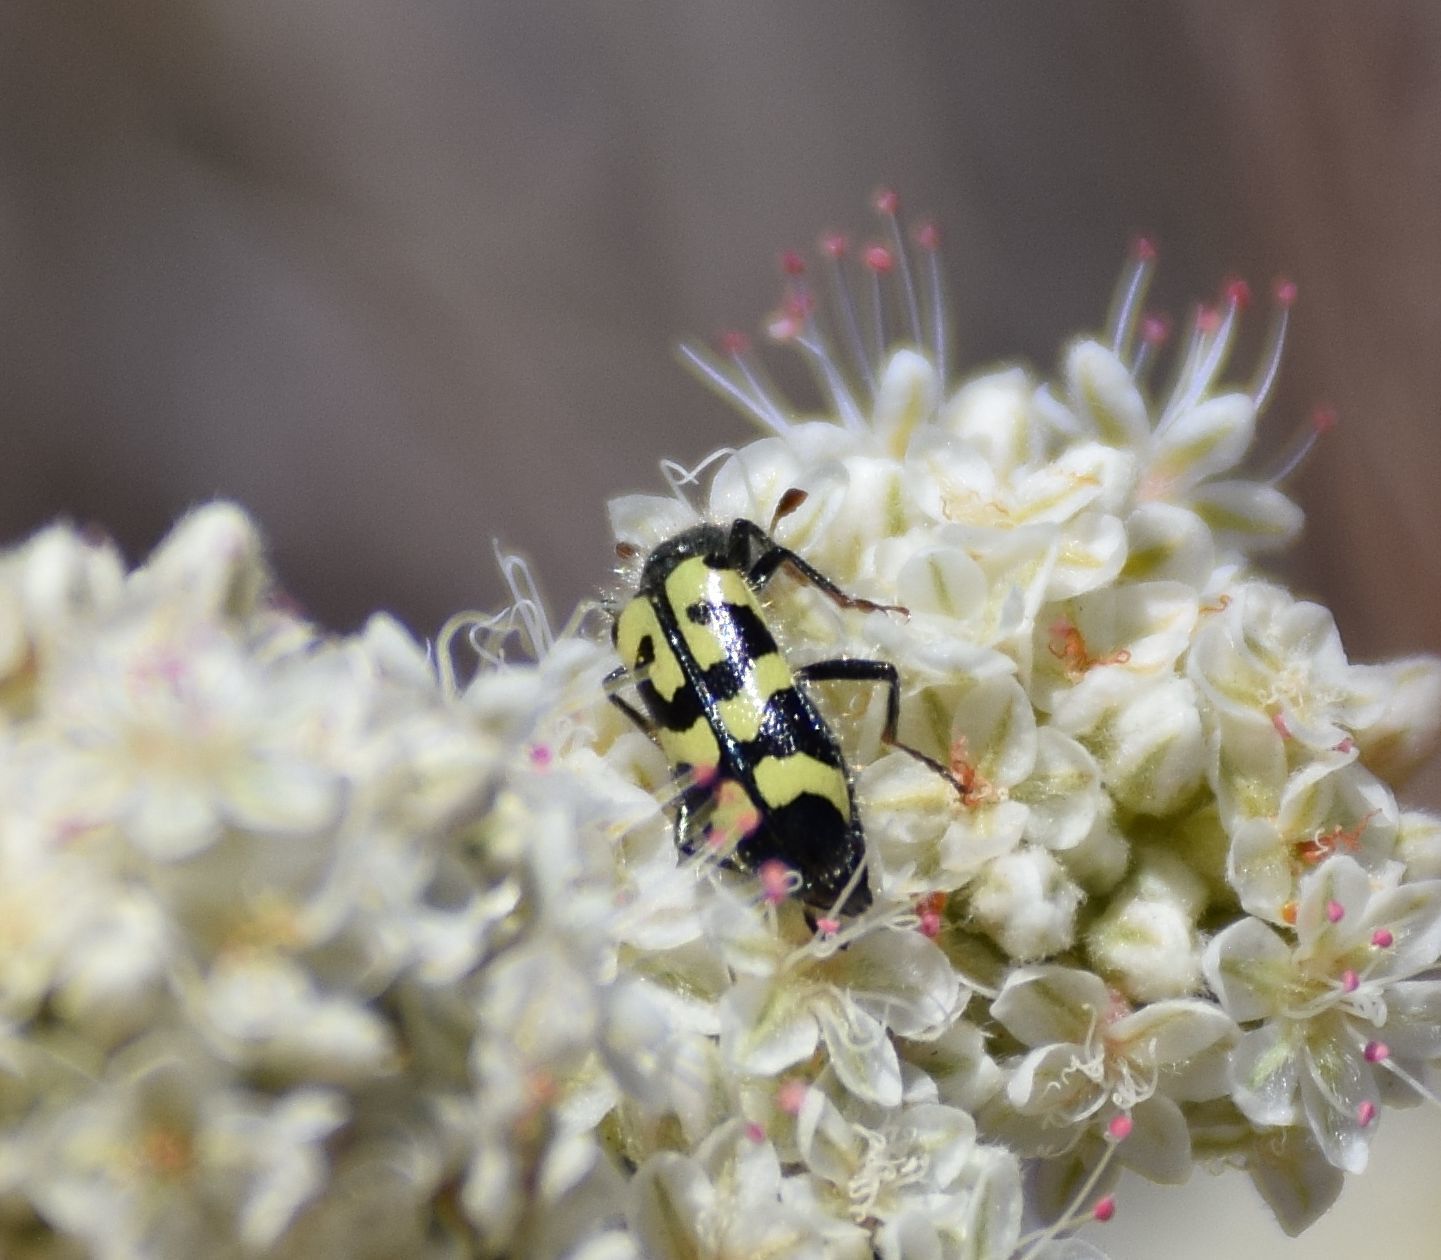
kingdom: Animalia
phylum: Arthropoda
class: Insecta
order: Coleoptera
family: Cleridae
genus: Trichodes
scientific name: Trichodes ornatus
